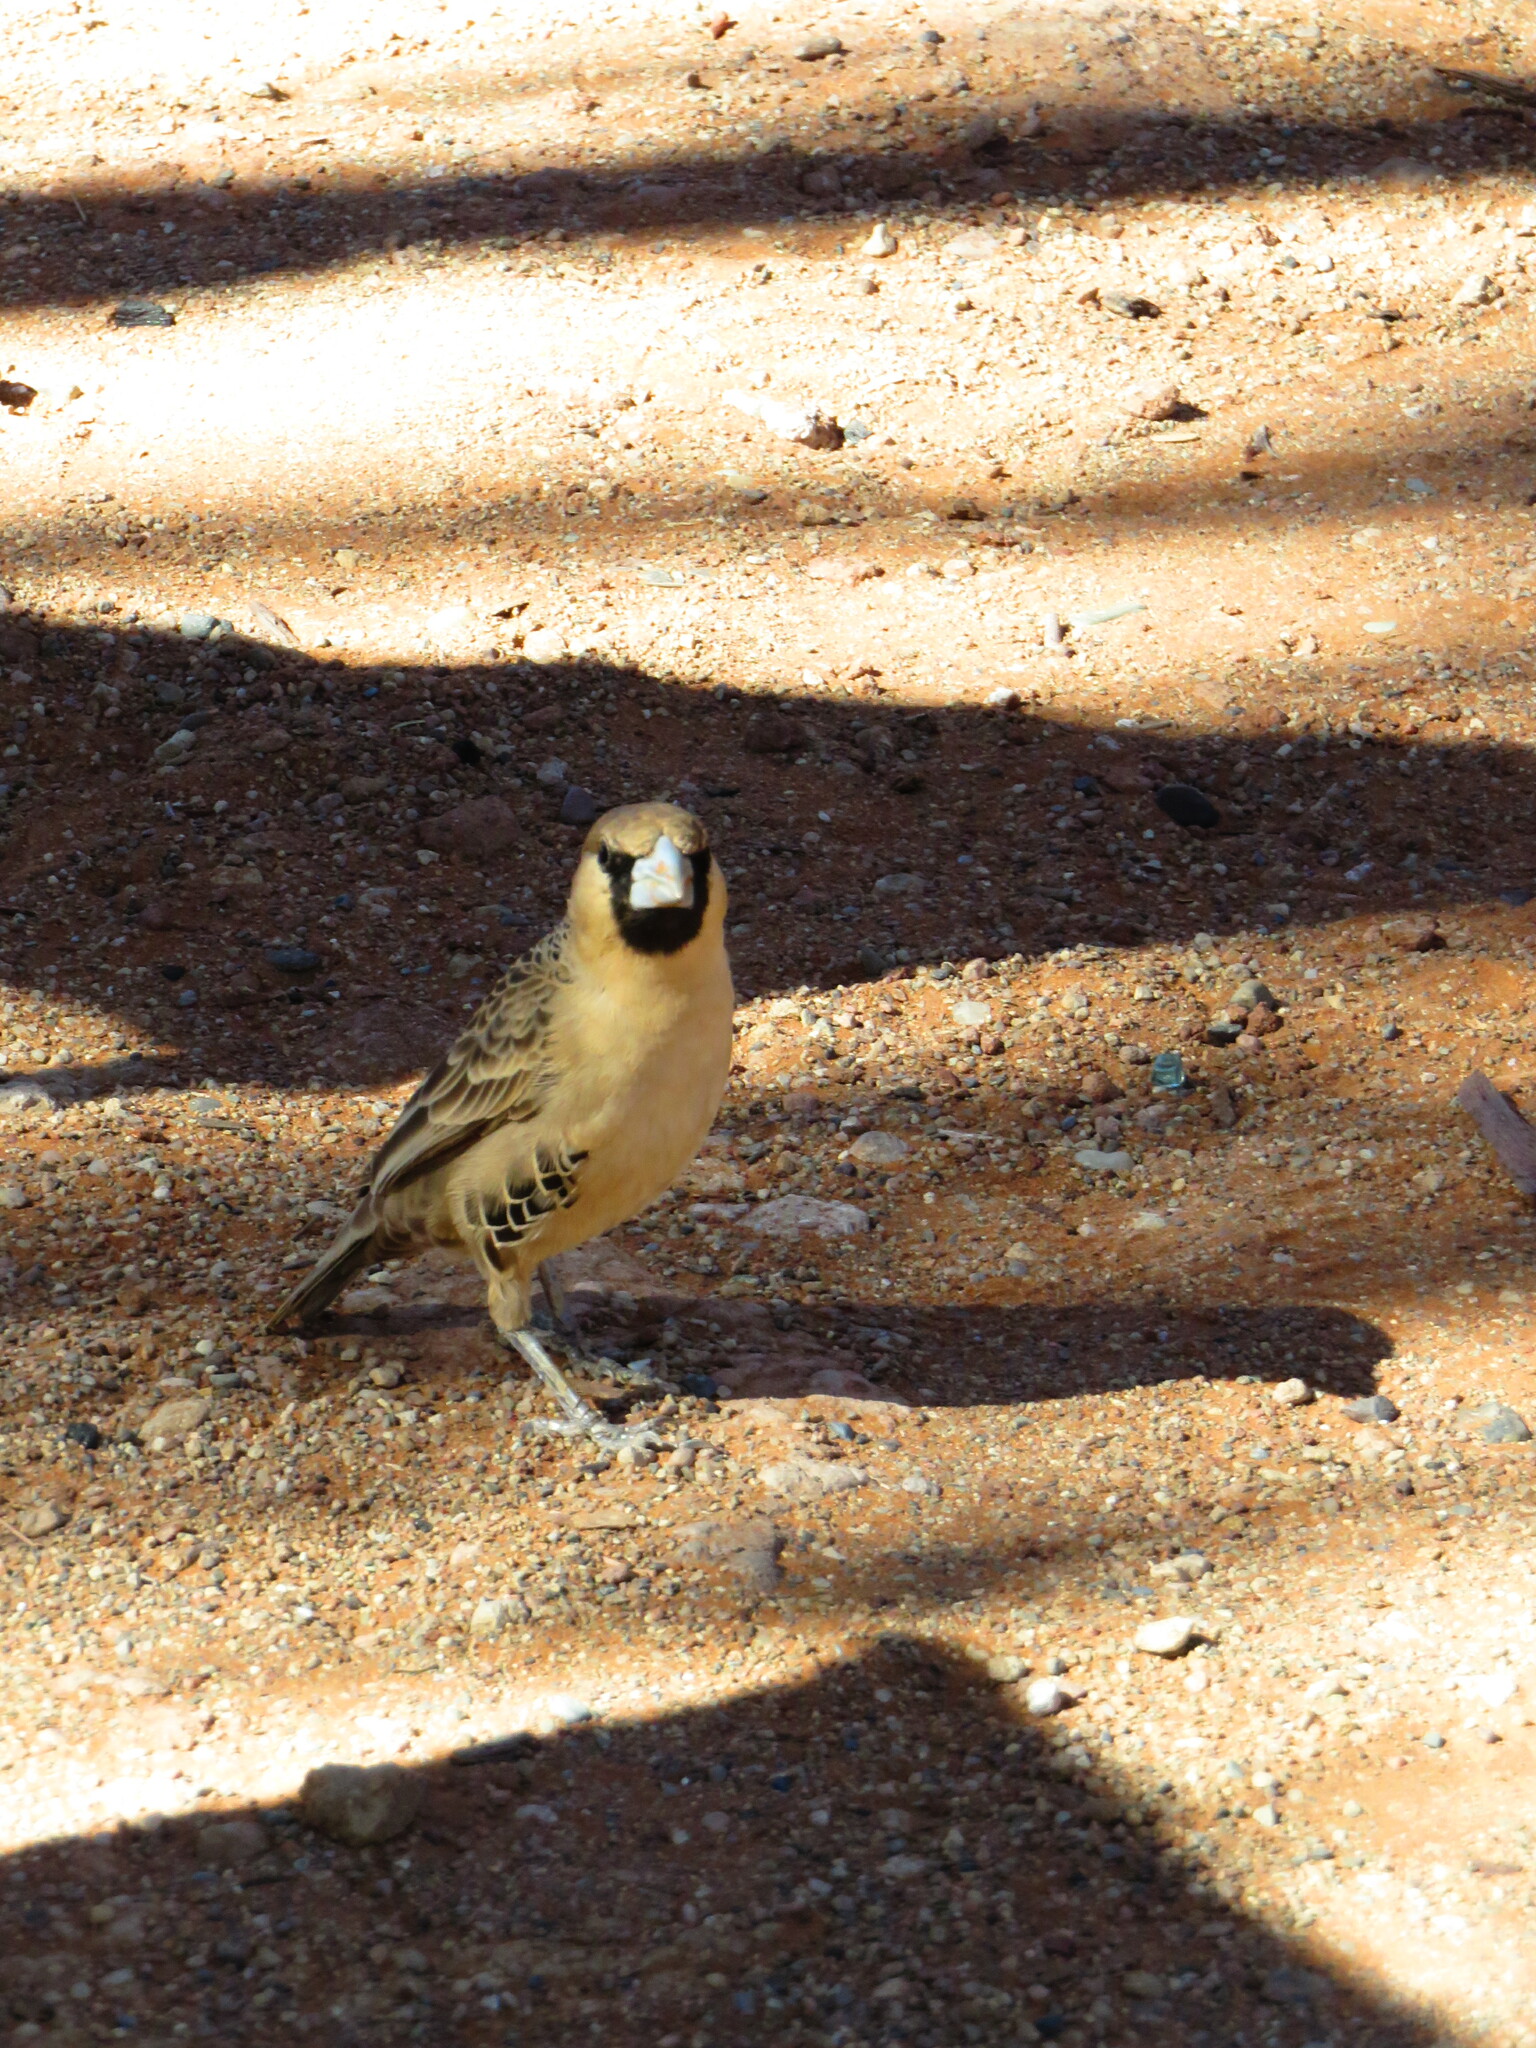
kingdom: Animalia
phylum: Chordata
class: Aves
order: Passeriformes
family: Passeridae
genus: Philetairus
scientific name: Philetairus socius
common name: Sociable weaver
